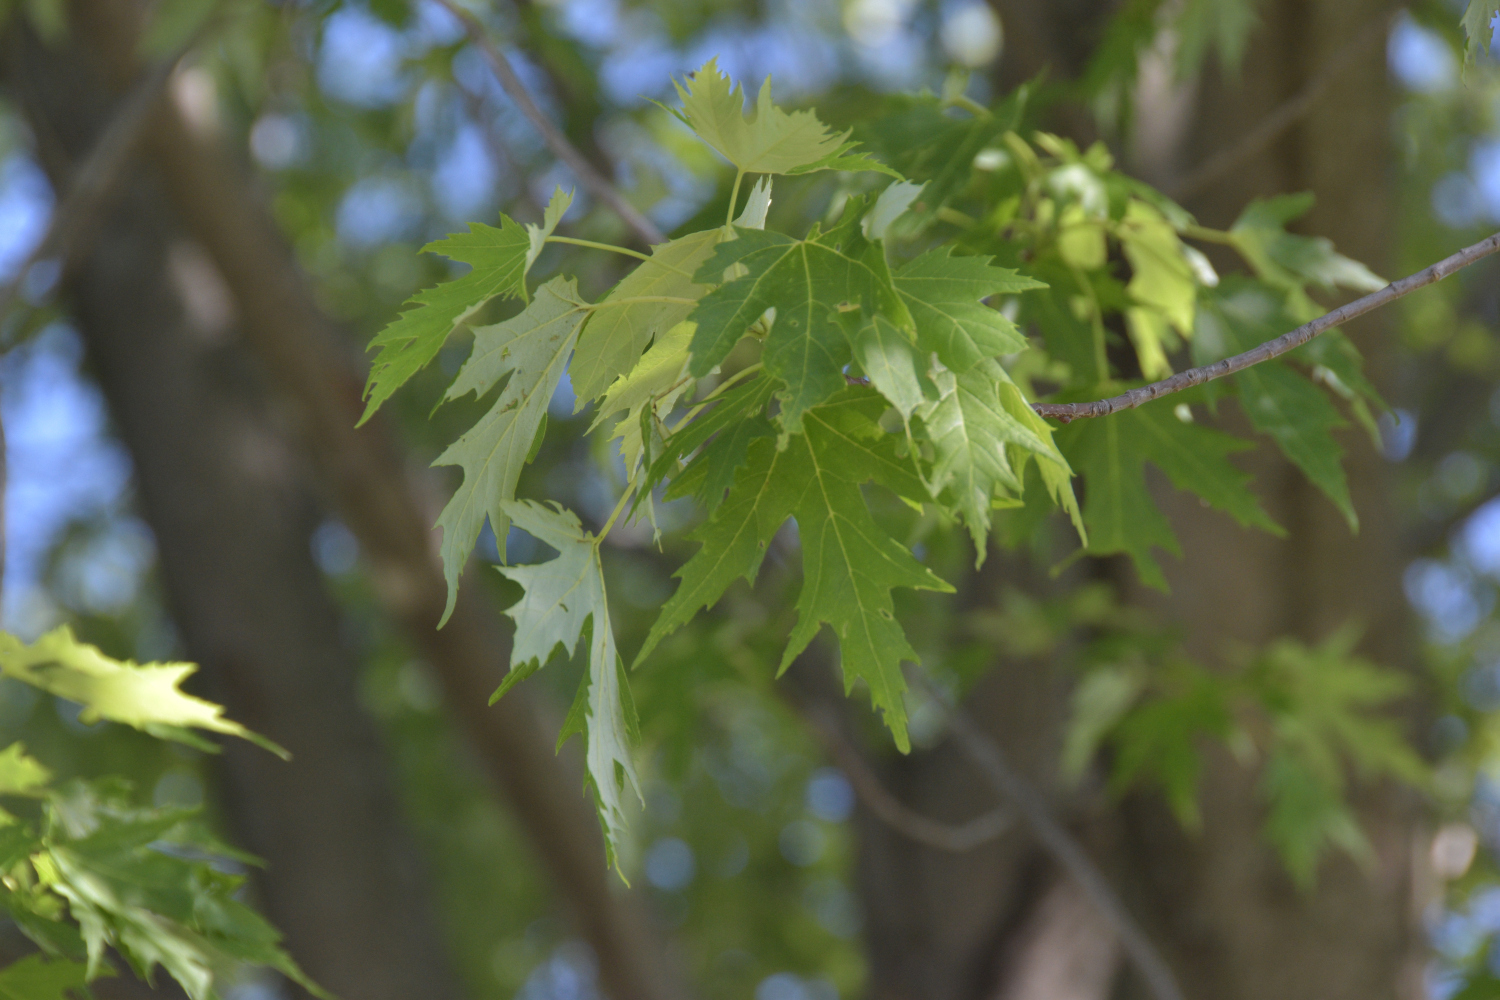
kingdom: Plantae
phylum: Tracheophyta
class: Magnoliopsida
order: Sapindales
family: Sapindaceae
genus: Acer
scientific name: Acer saccharinum
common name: Silver maple
